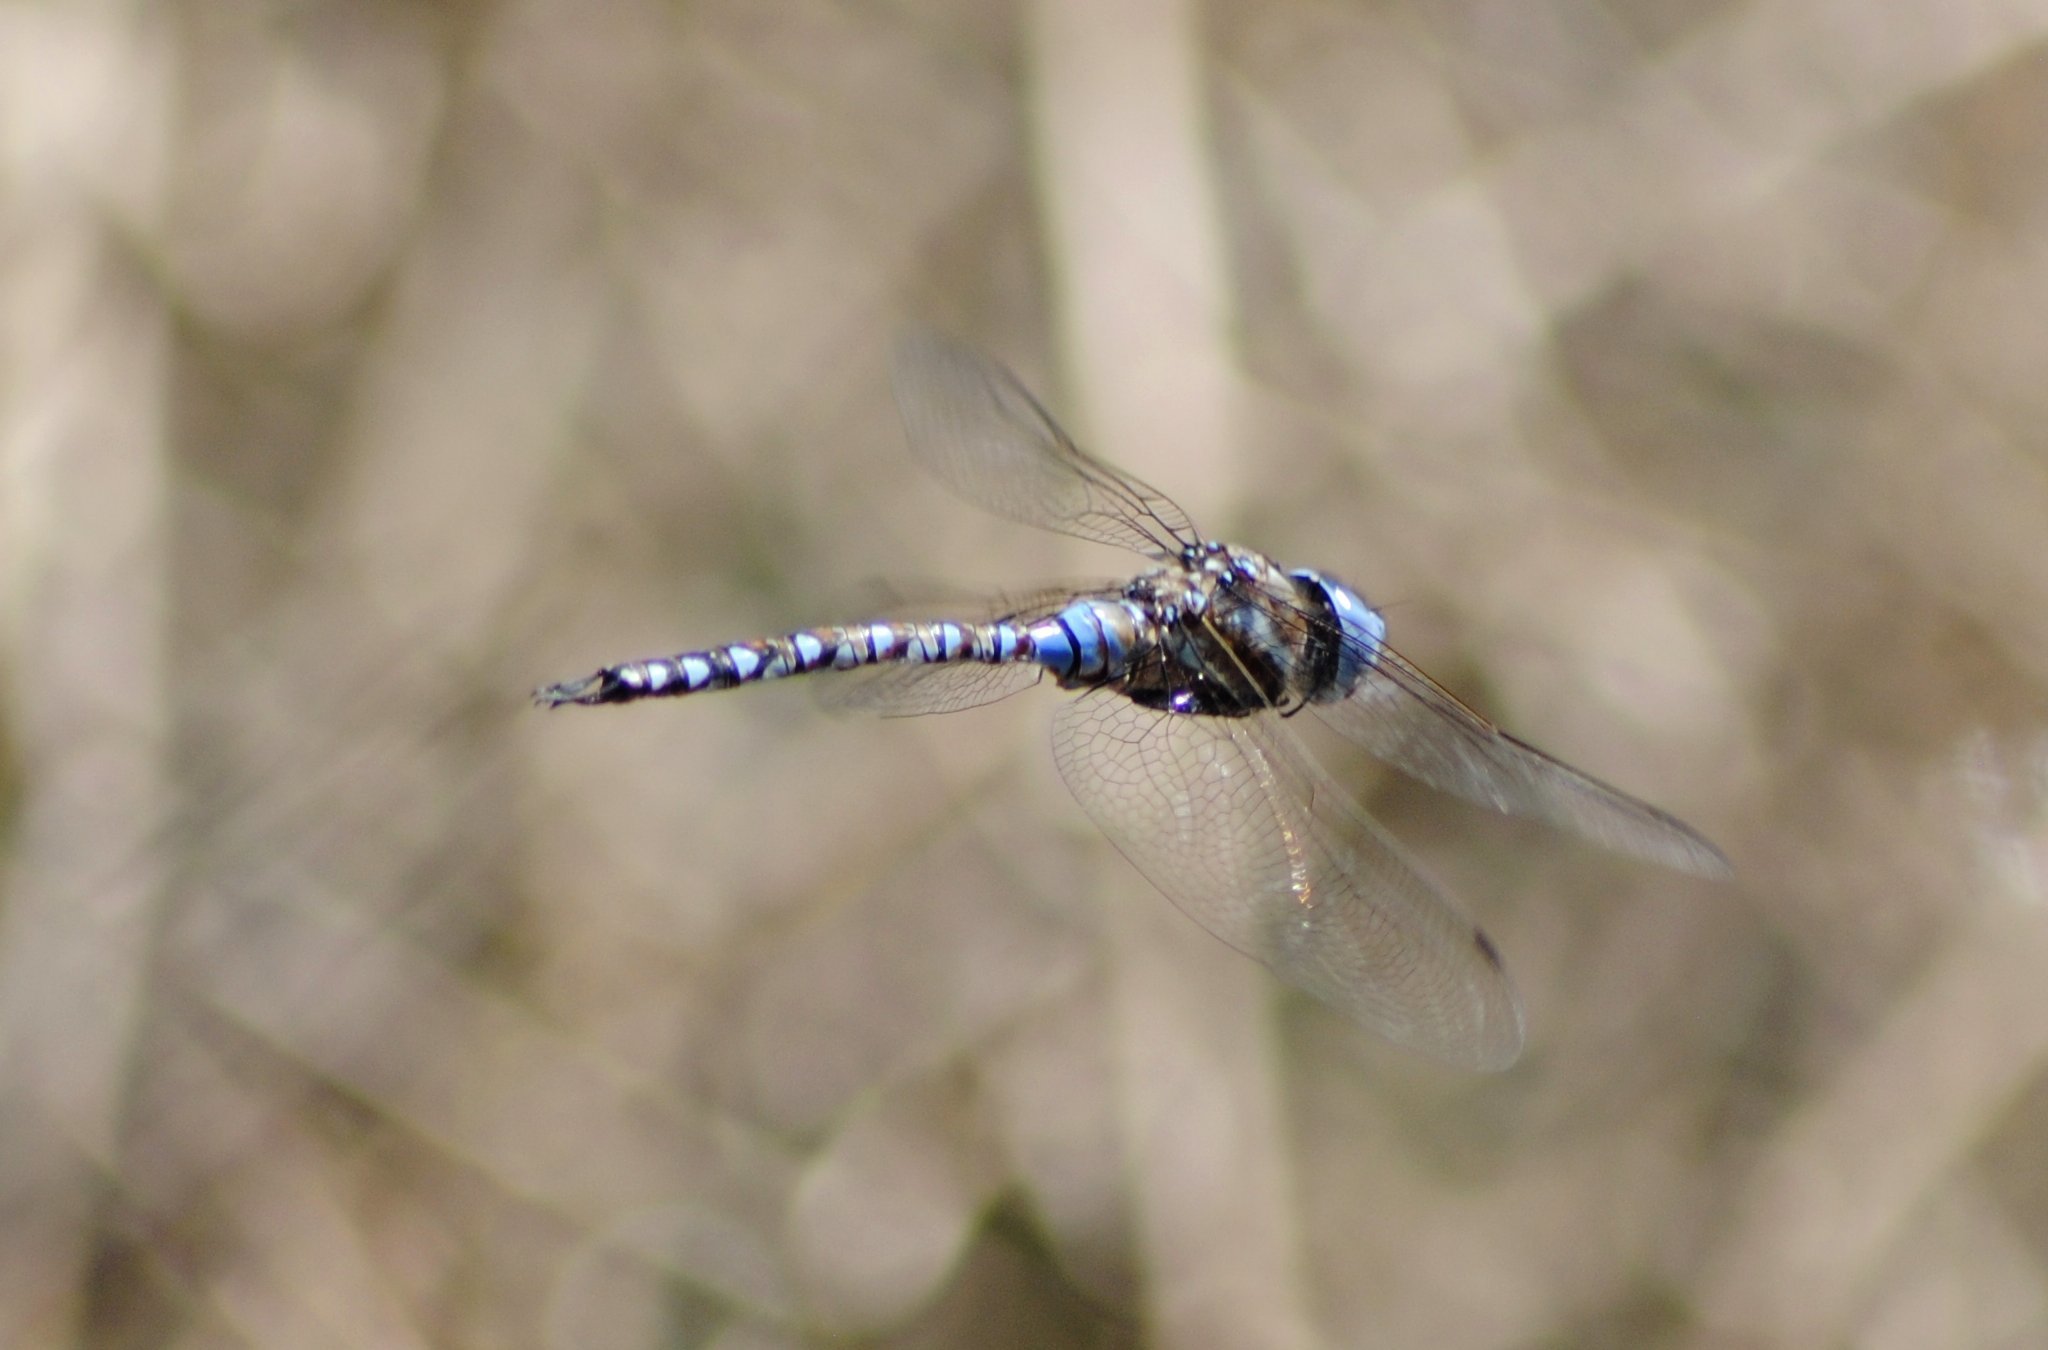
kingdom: Animalia
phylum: Arthropoda
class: Insecta
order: Odonata
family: Aeshnidae
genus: Rhionaeschna
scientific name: Rhionaeschna multicolor
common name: Blue-eyed darner
